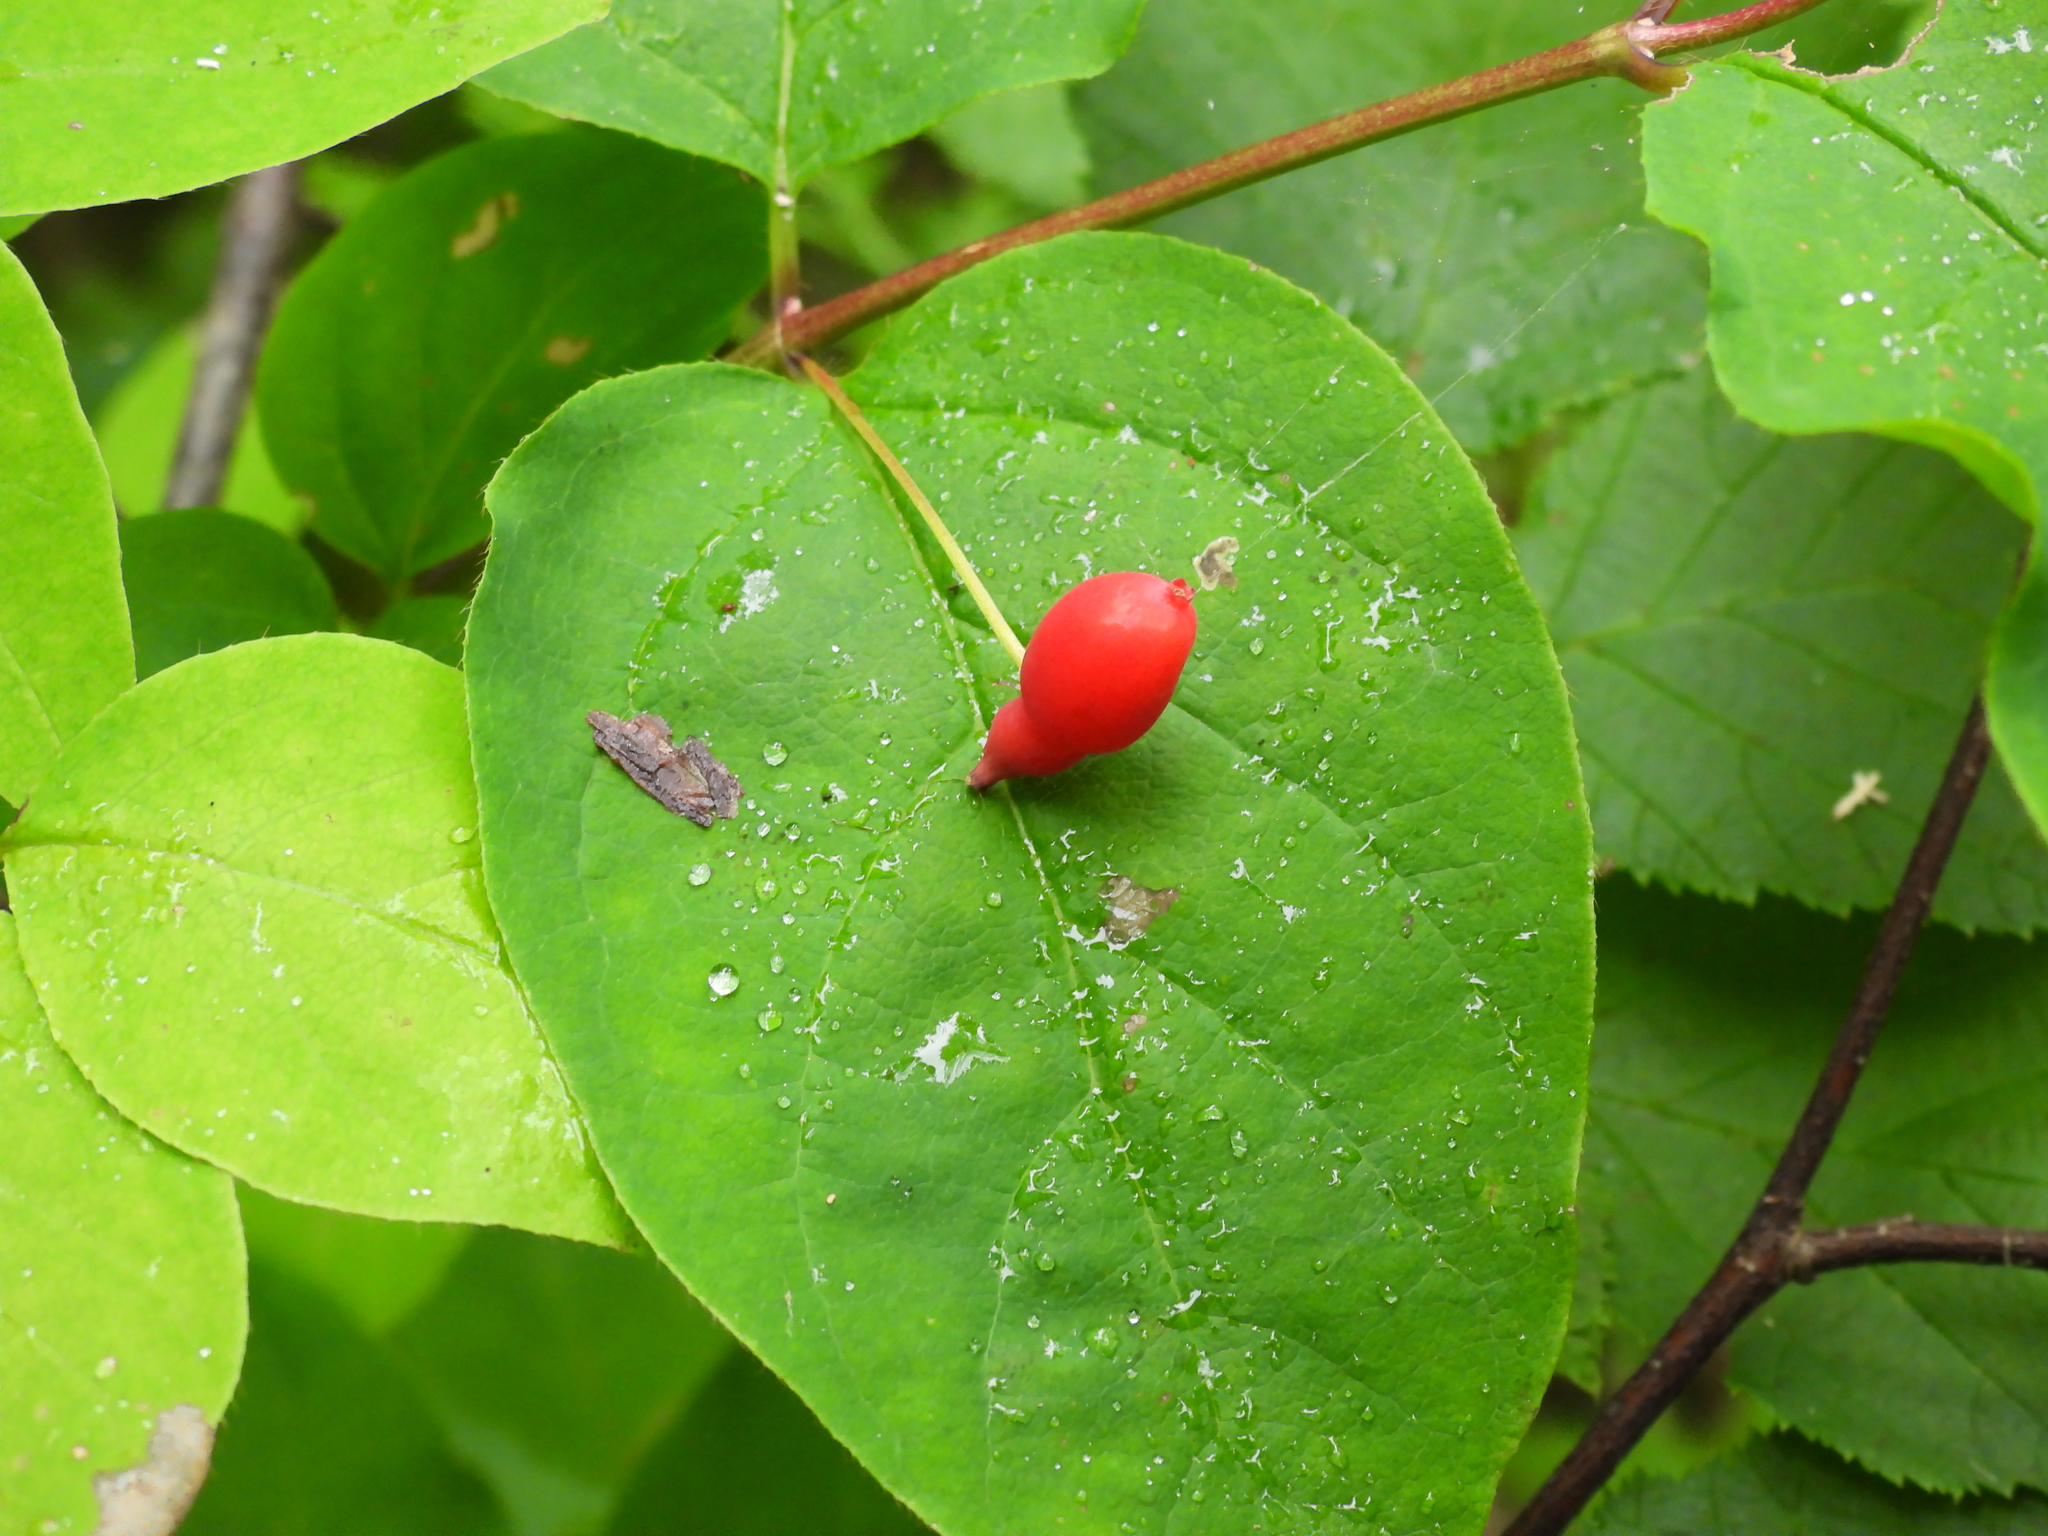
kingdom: Plantae
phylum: Tracheophyta
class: Magnoliopsida
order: Dipsacales
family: Caprifoliaceae
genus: Lonicera
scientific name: Lonicera canadensis
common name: American fly-honeysuckle
